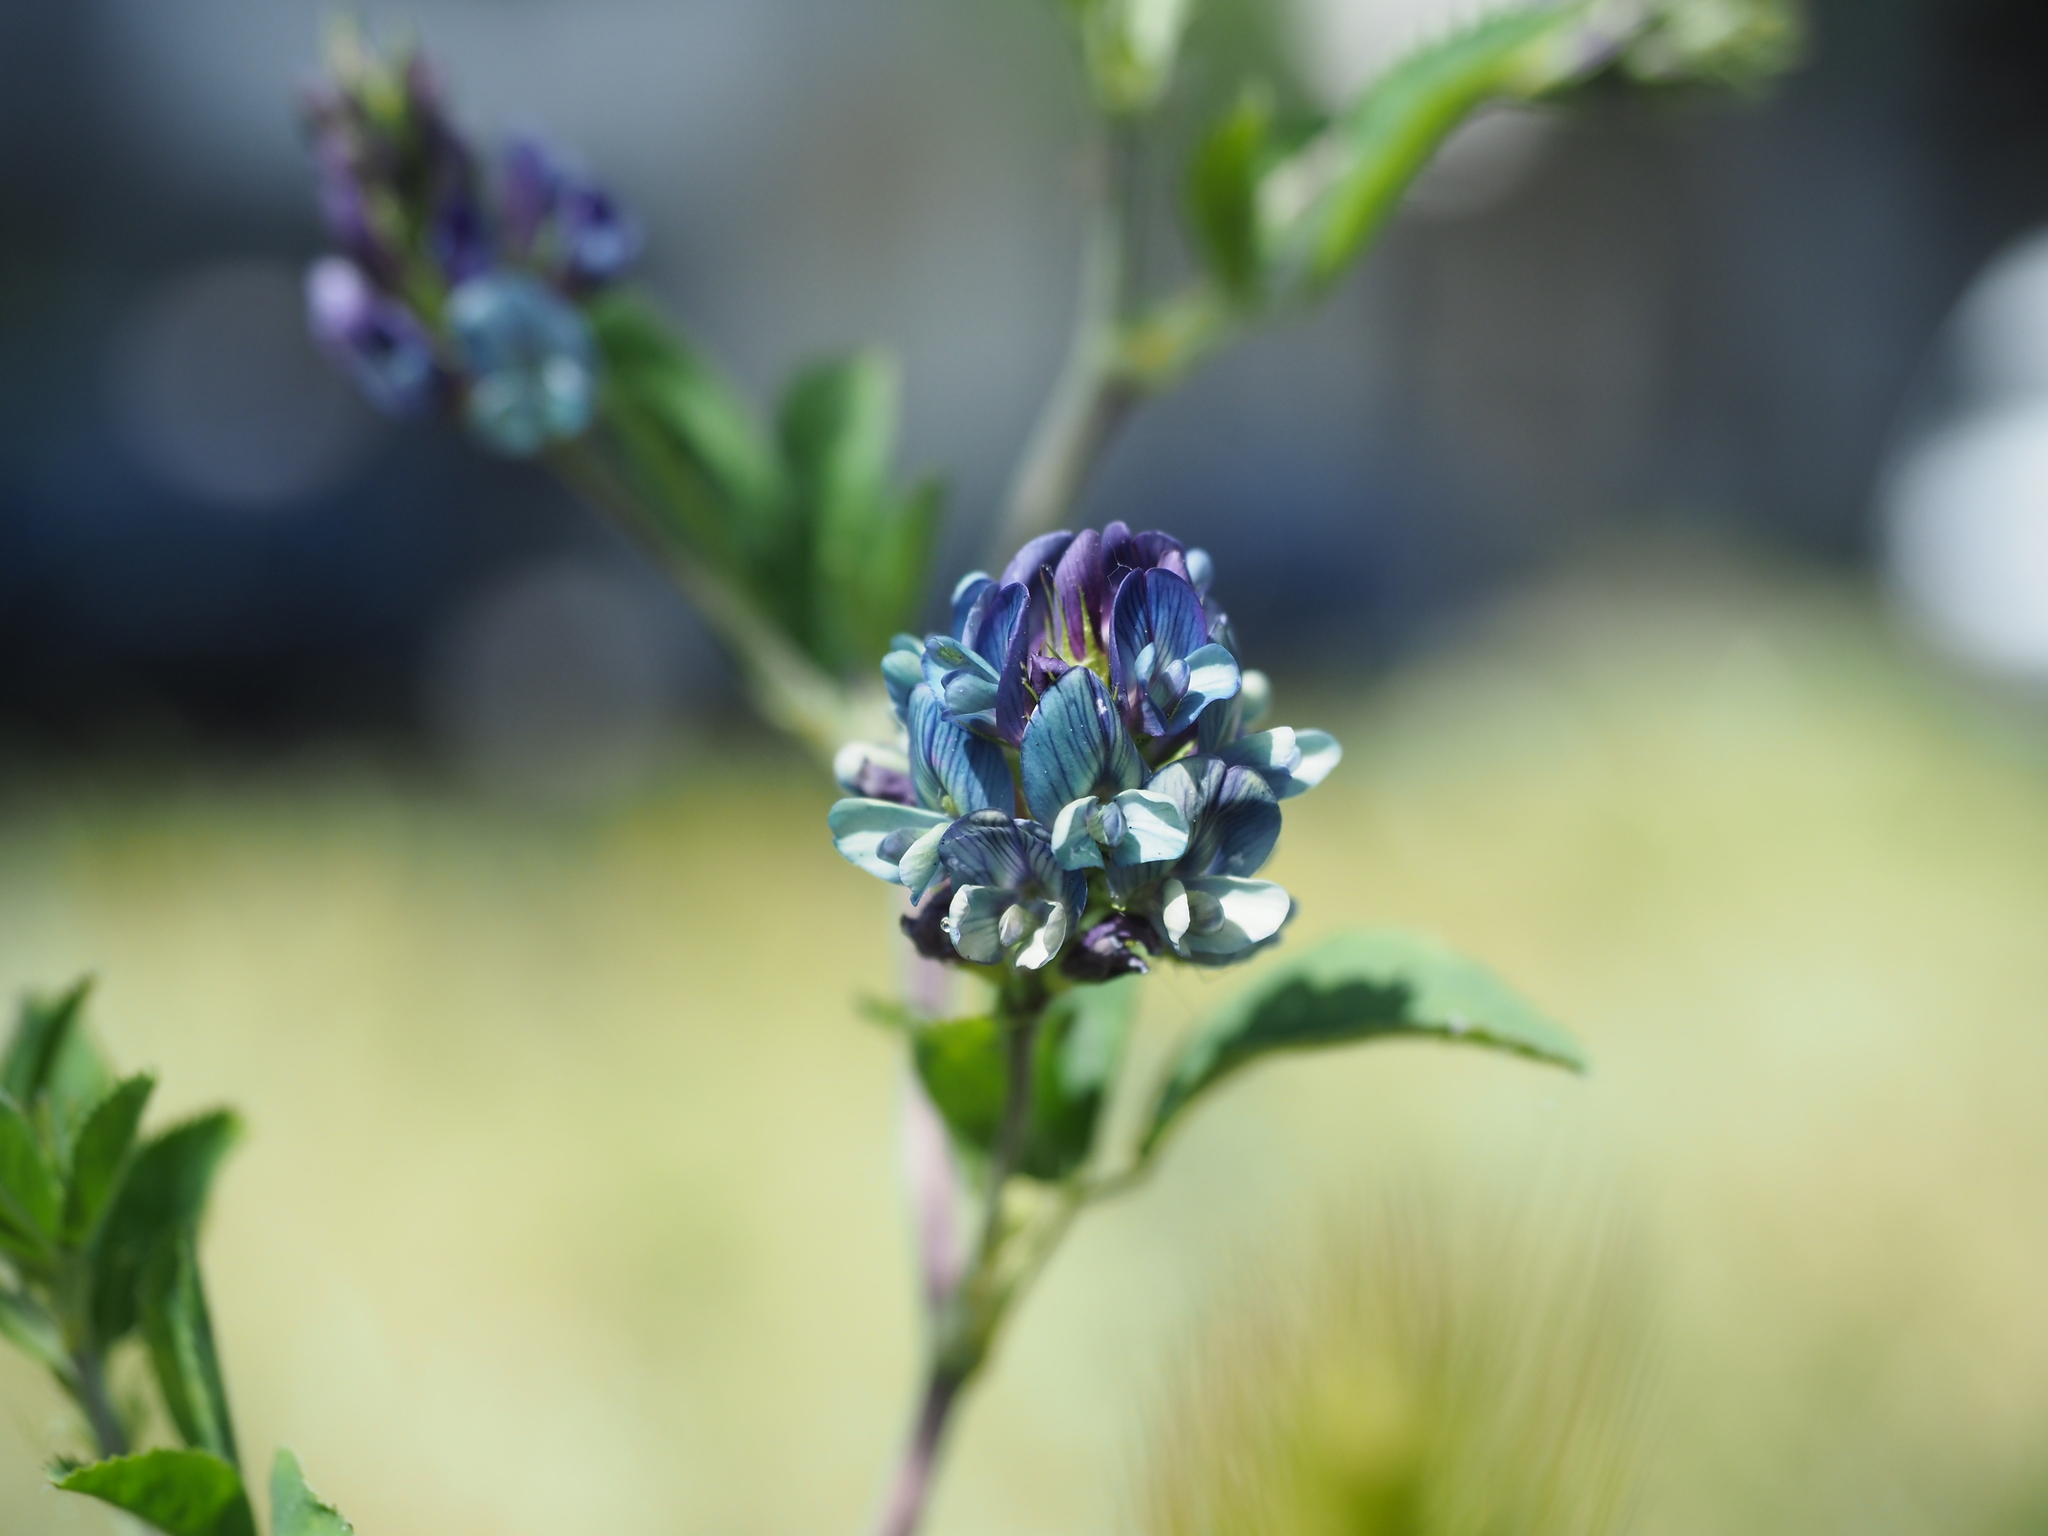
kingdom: Plantae
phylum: Tracheophyta
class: Magnoliopsida
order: Fabales
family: Fabaceae
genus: Medicago
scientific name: Medicago varia
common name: Sand lucerne
